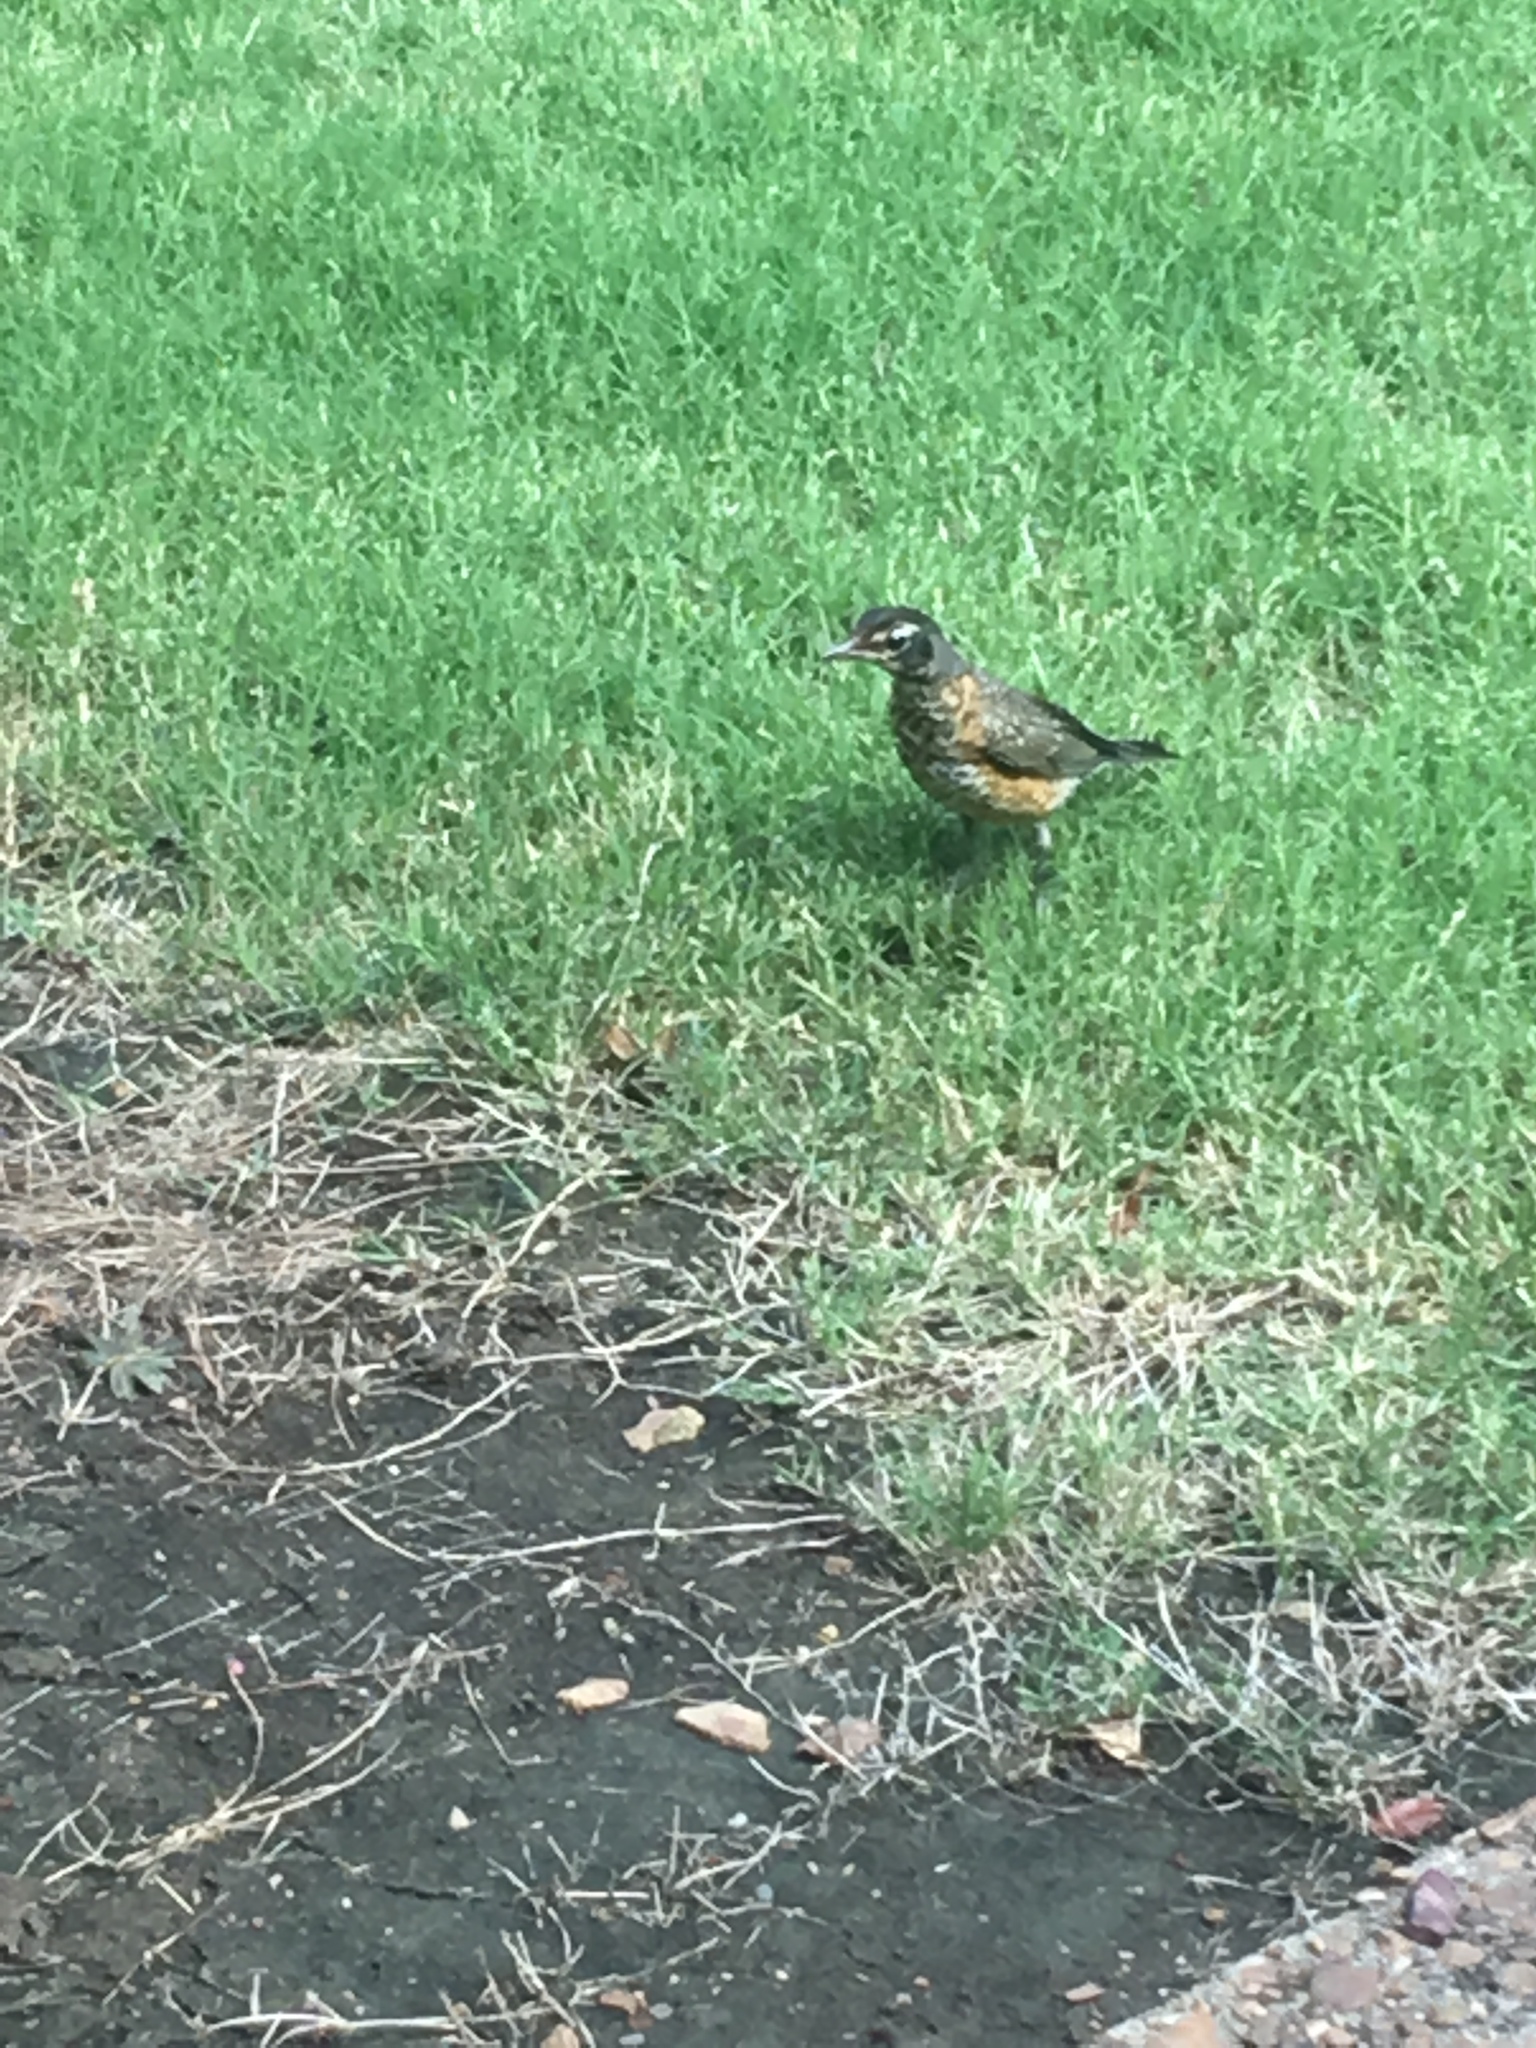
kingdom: Animalia
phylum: Chordata
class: Aves
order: Passeriformes
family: Turdidae
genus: Turdus
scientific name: Turdus migratorius
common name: American robin
